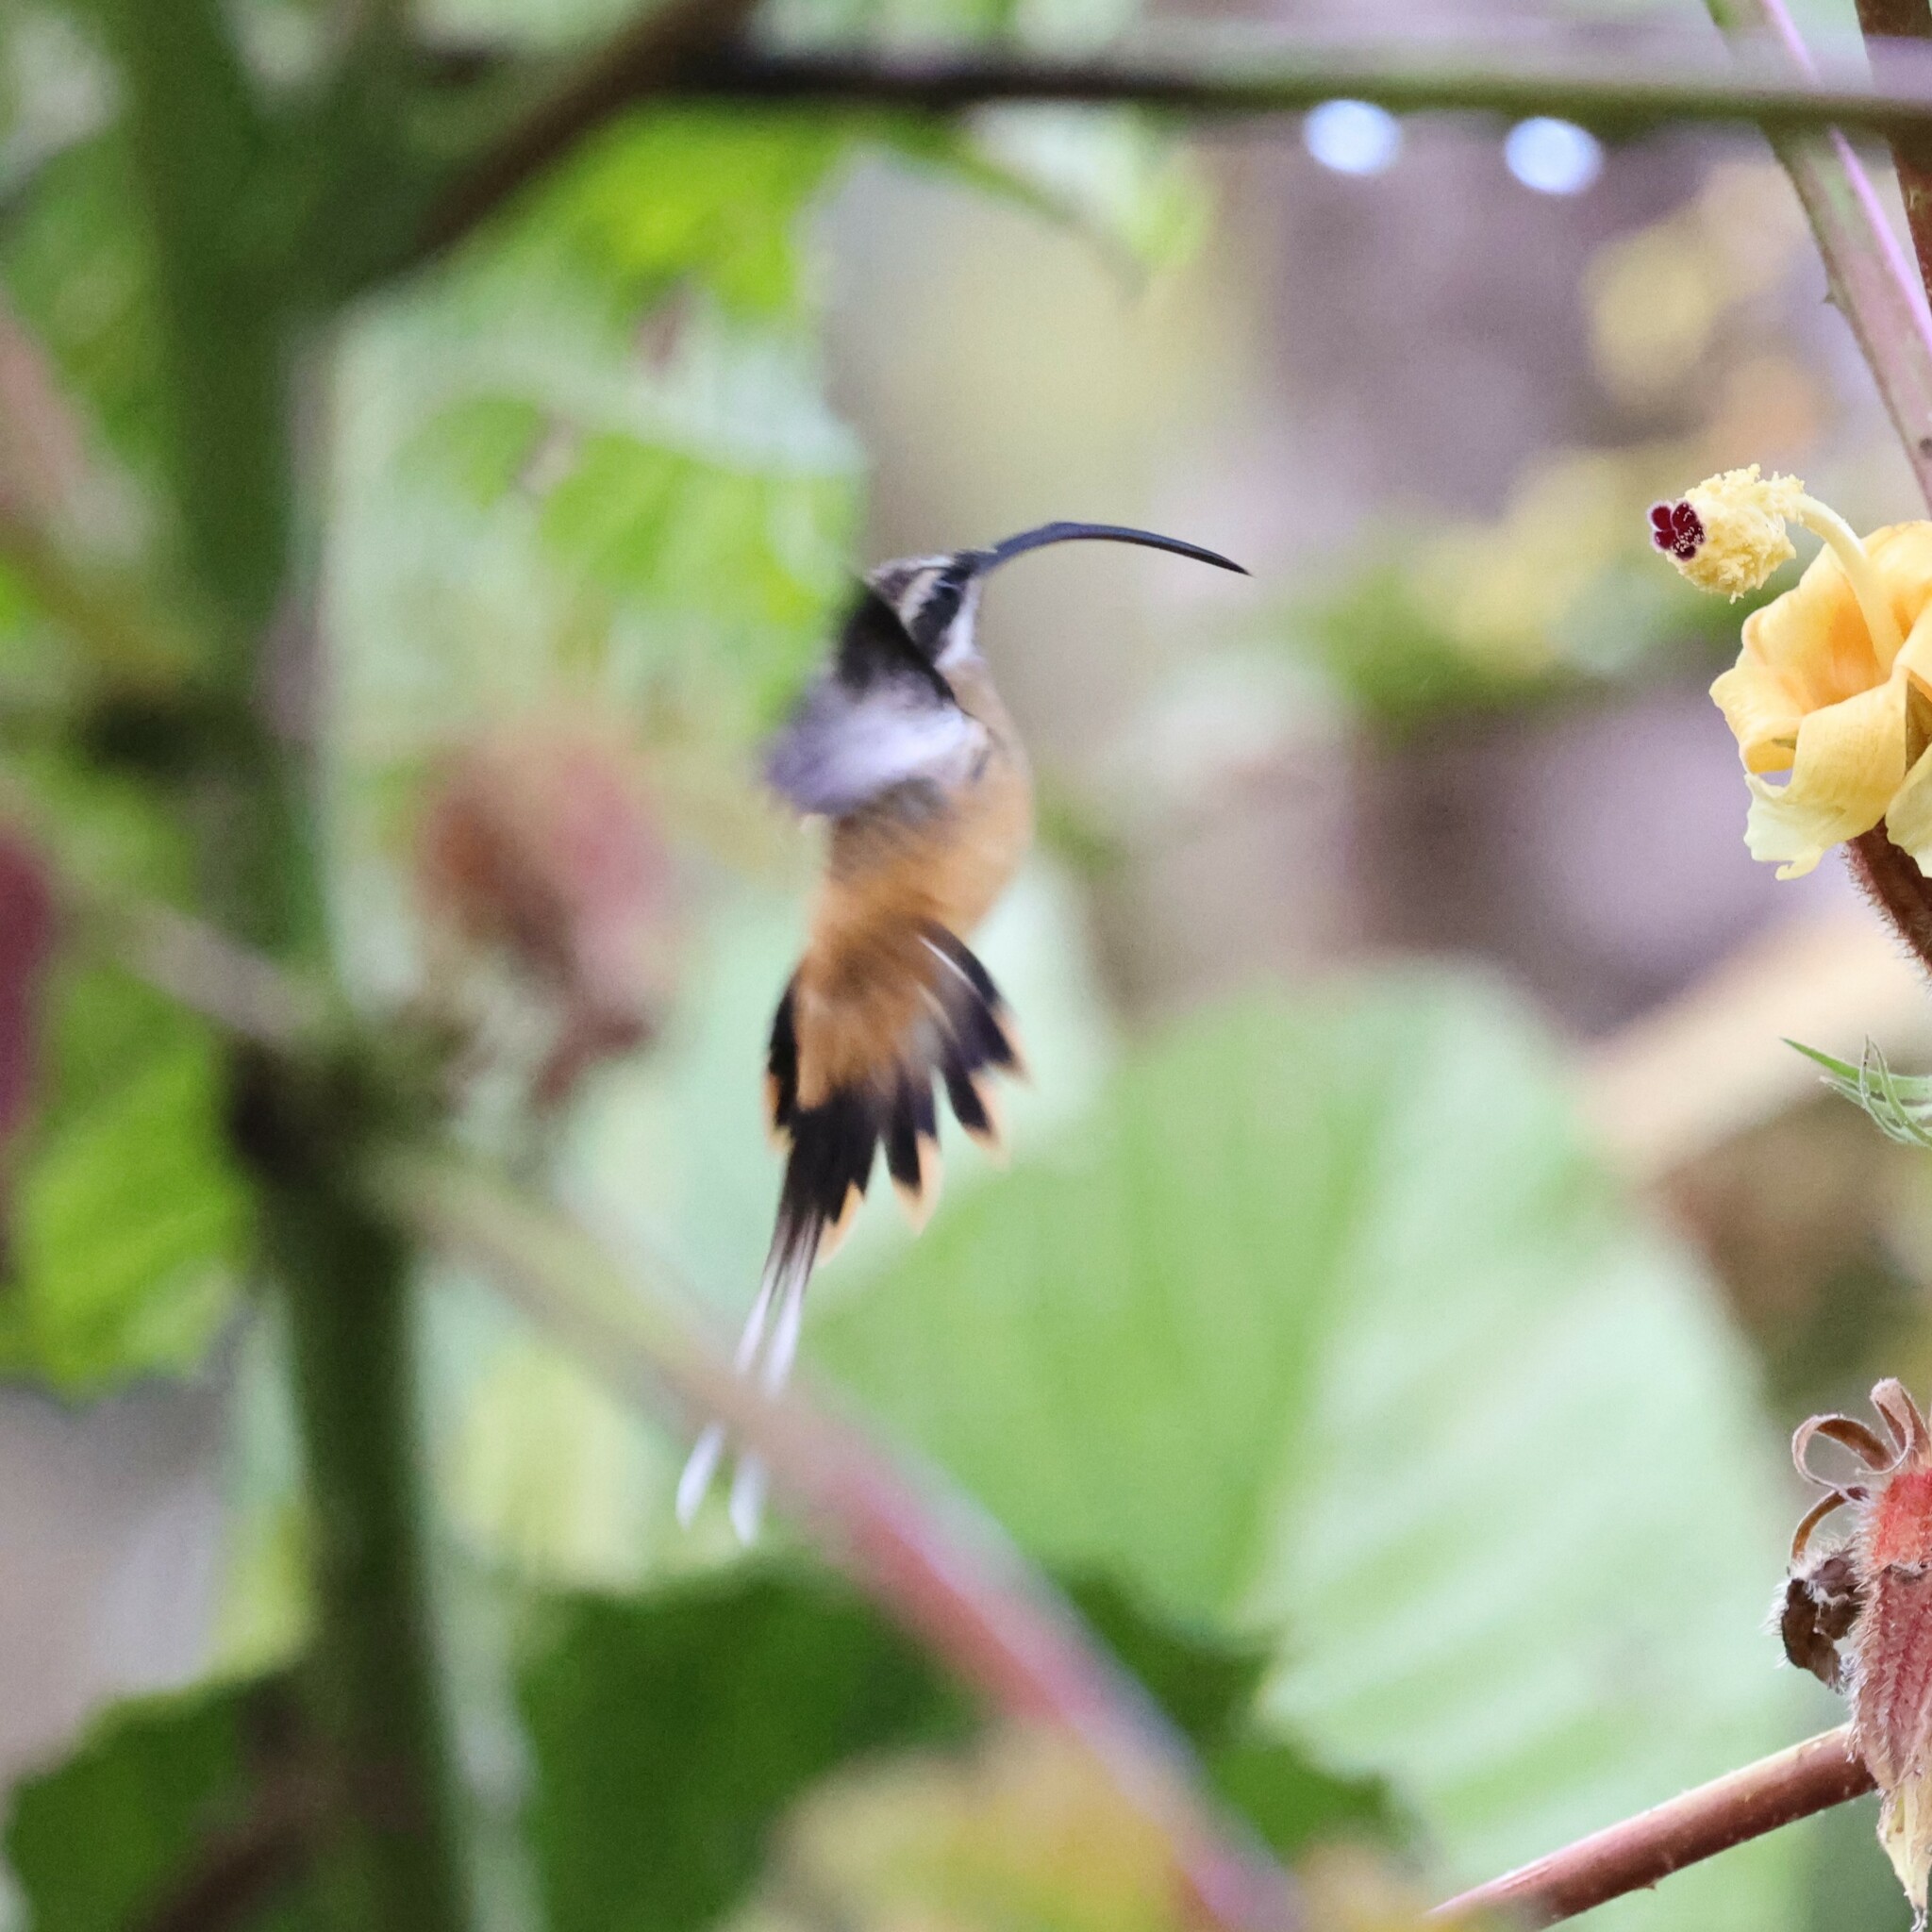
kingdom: Animalia
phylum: Chordata
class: Aves
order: Apodiformes
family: Trochilidae
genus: Phaethornis
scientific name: Phaethornis syrmatophorus
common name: Tawny-bellied hermit
